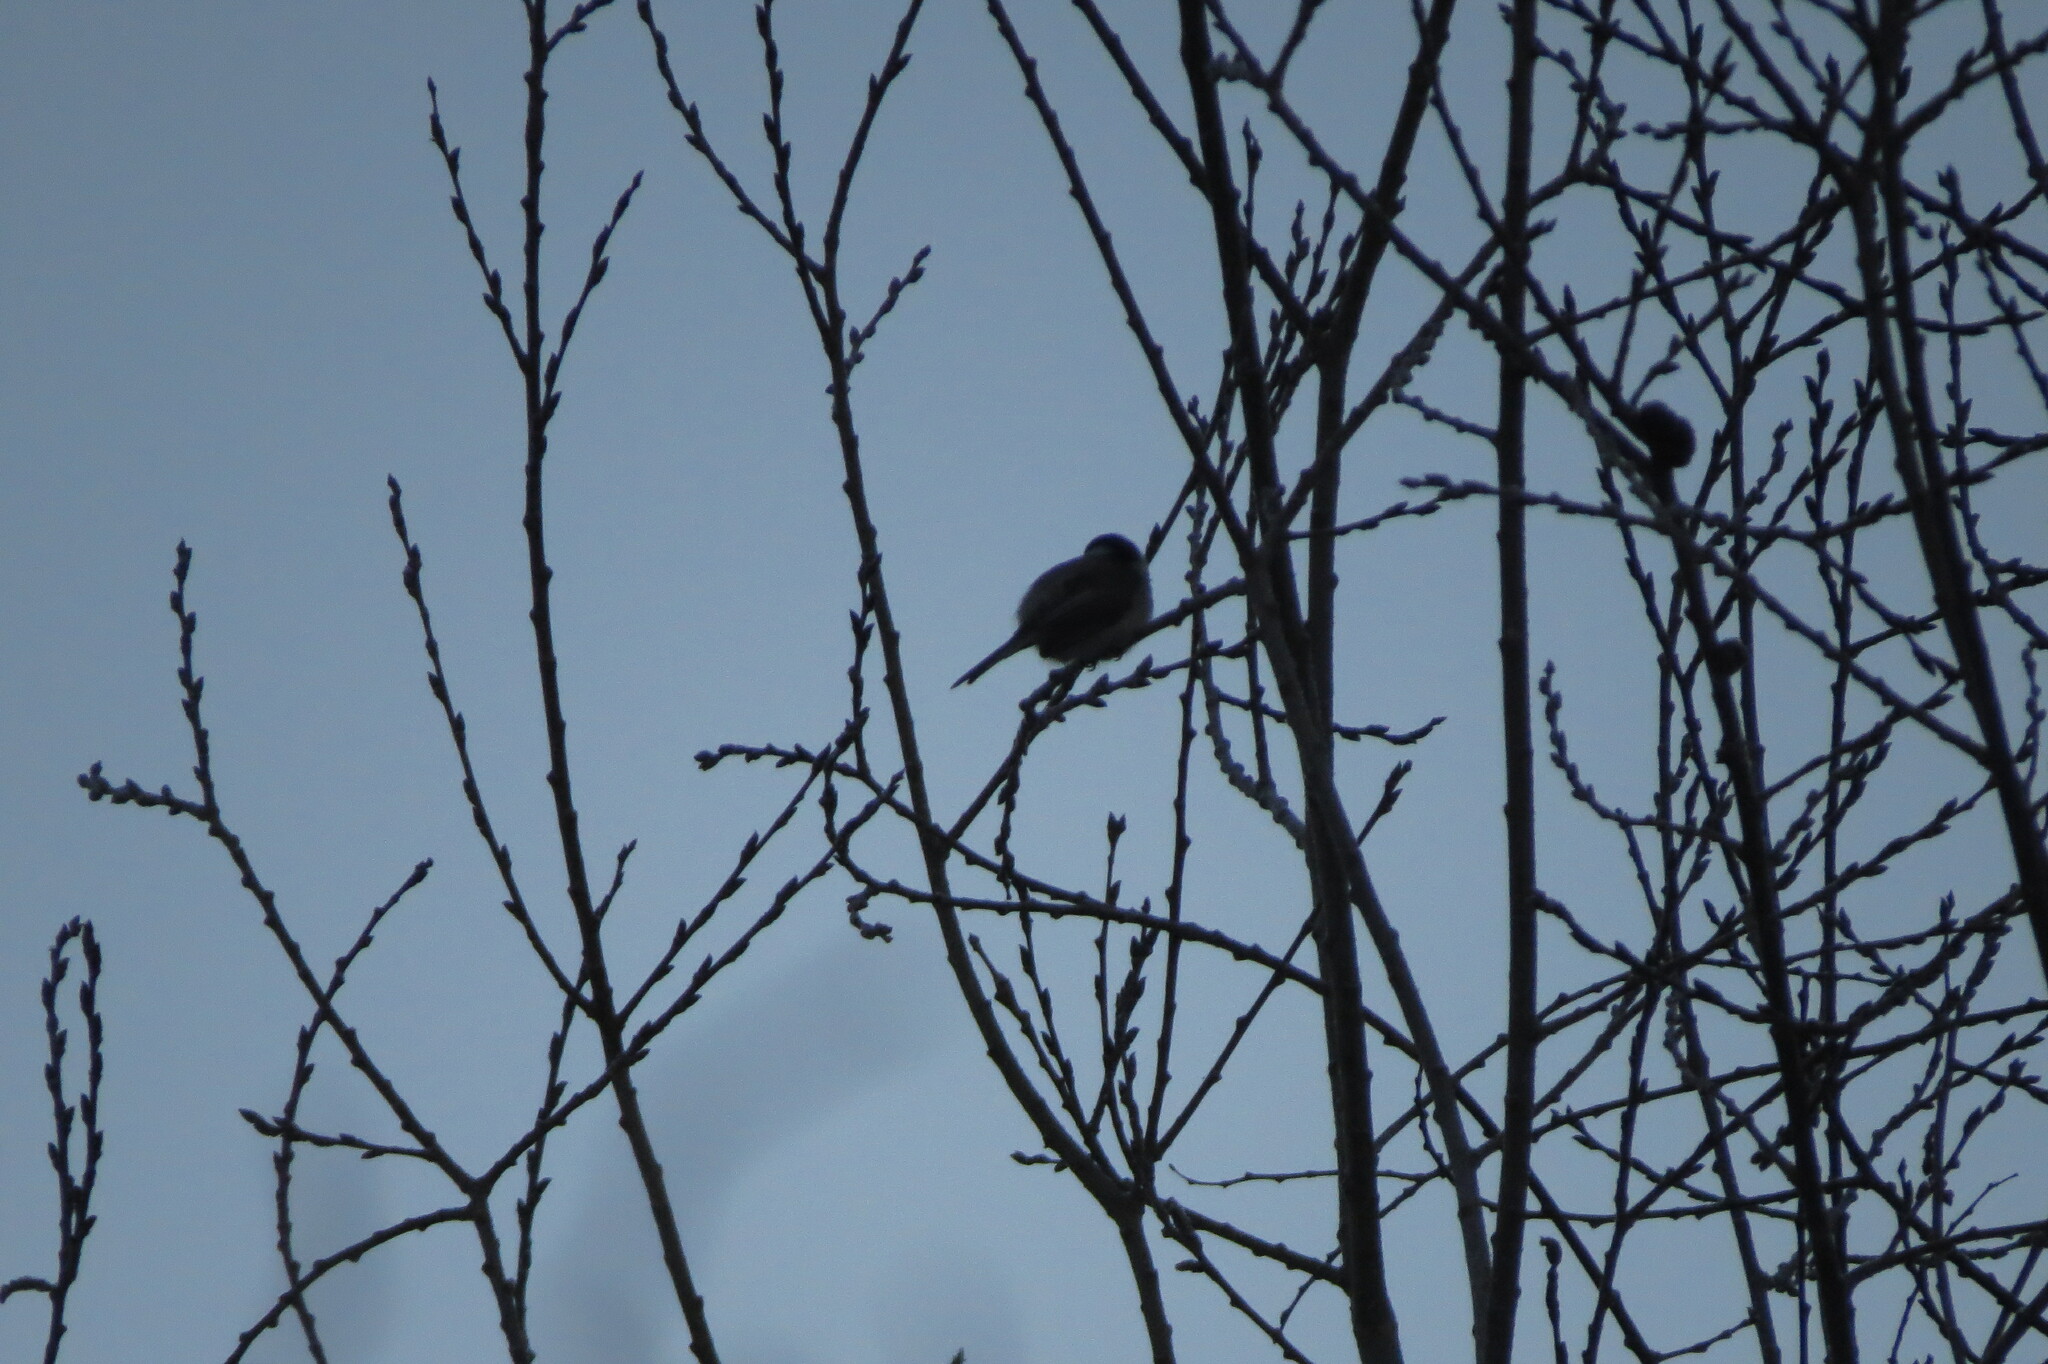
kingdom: Animalia
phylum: Chordata
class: Aves
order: Passeriformes
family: Paridae
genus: Poecile
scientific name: Poecile montanus
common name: Willow tit
